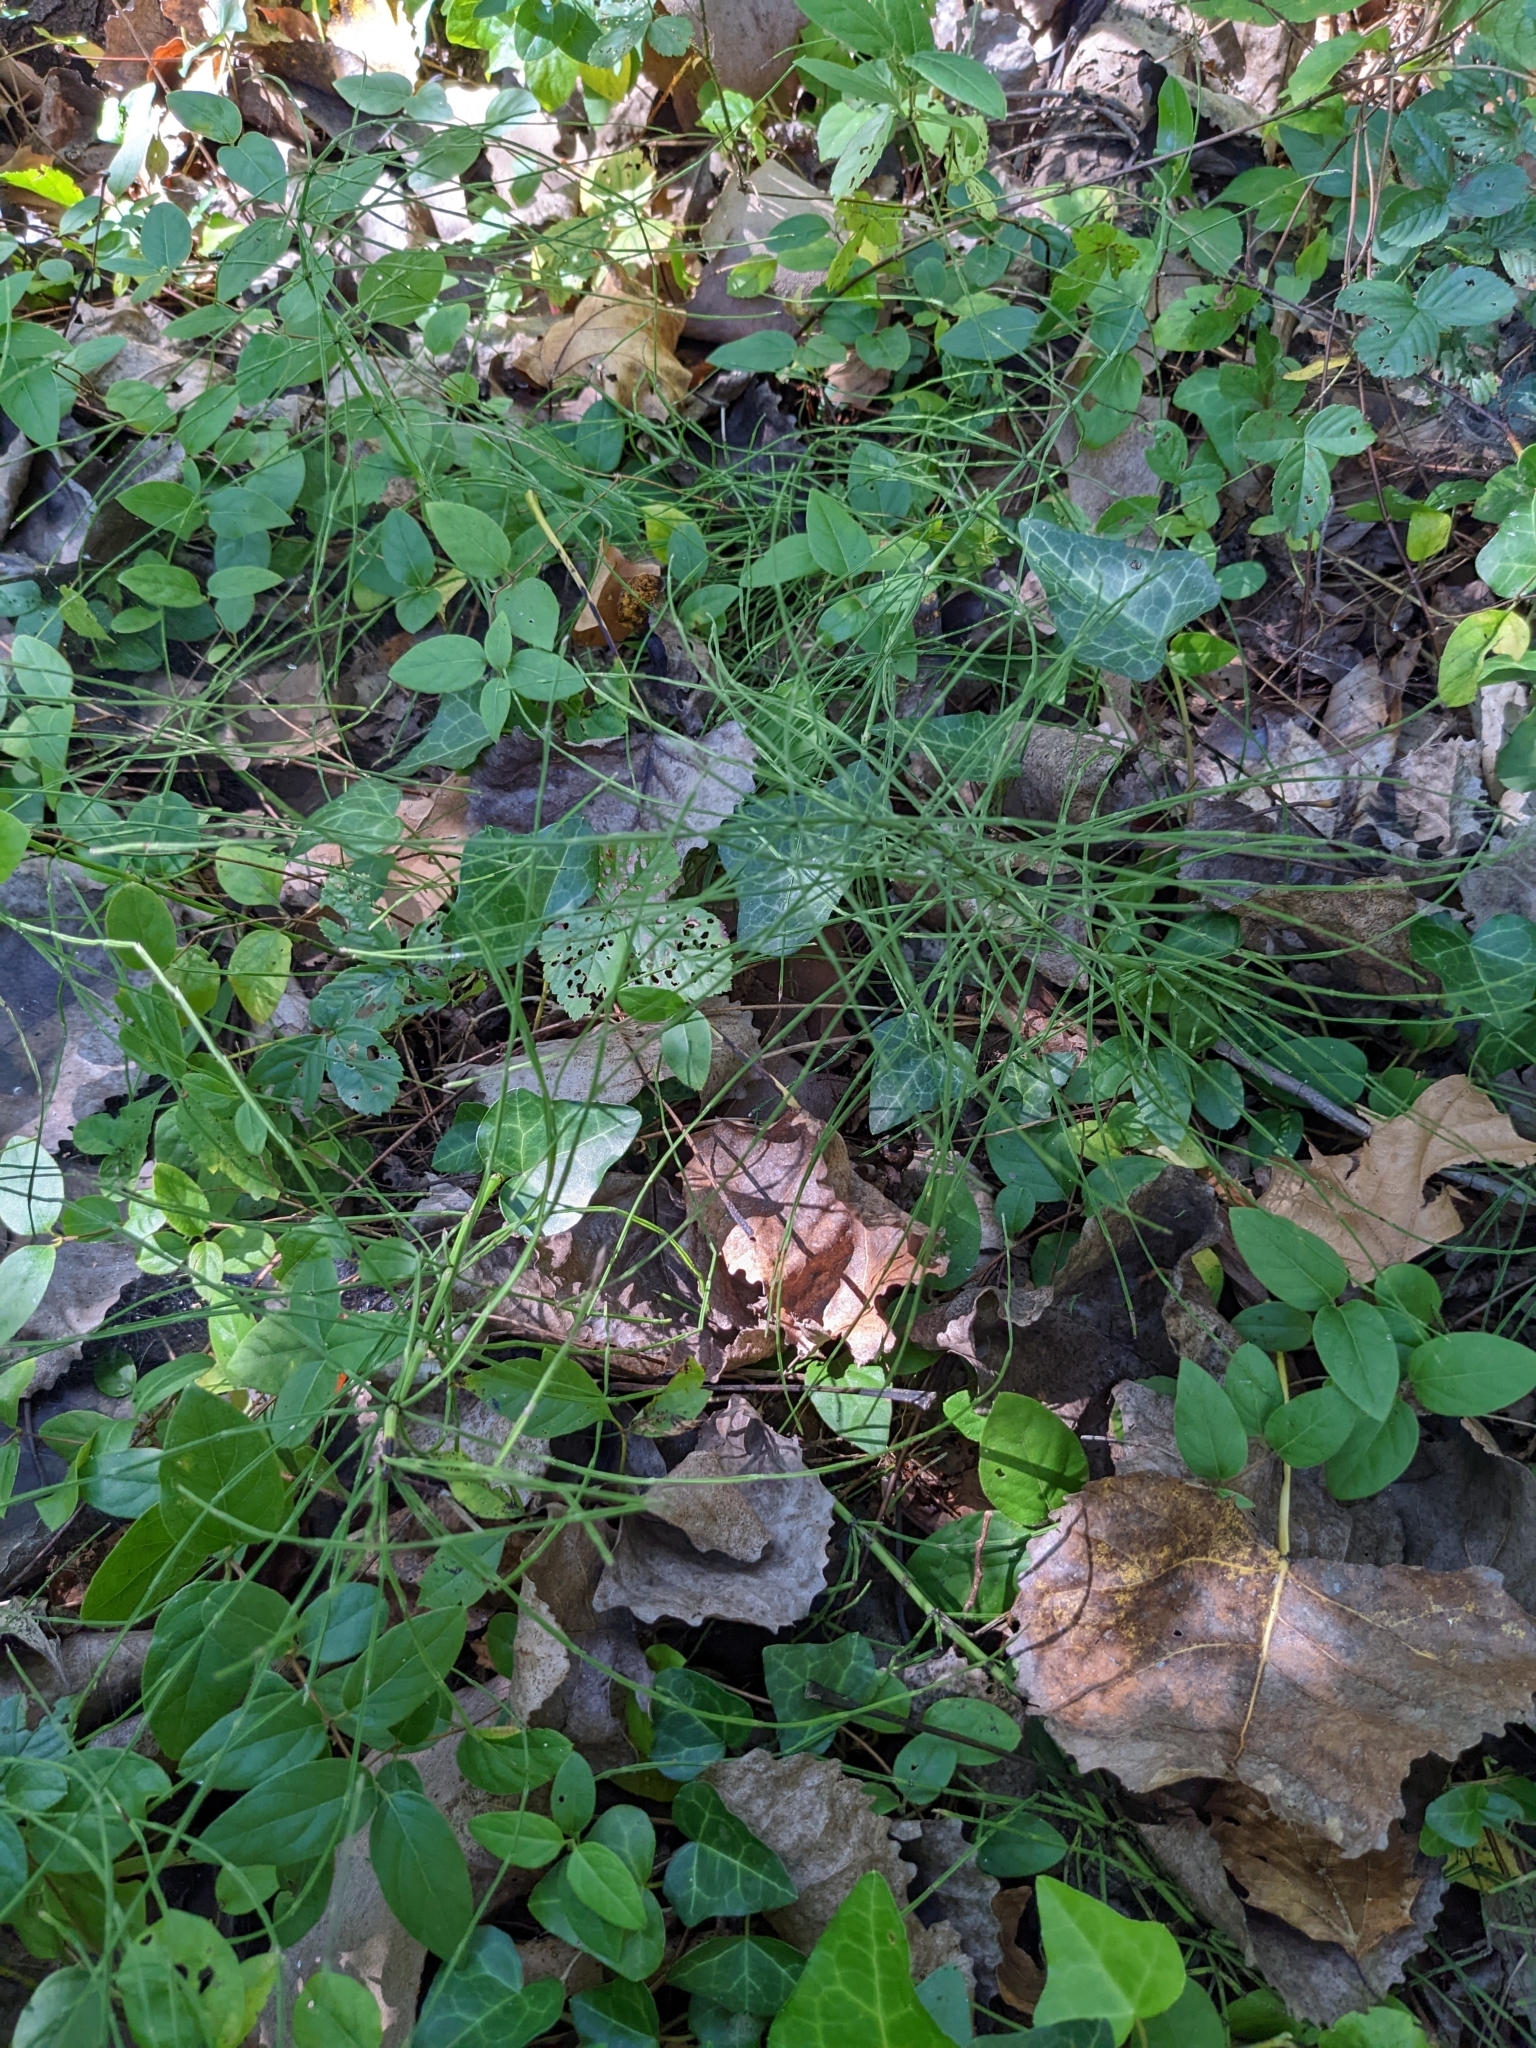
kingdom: Plantae
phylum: Tracheophyta
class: Polypodiopsida
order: Equisetales
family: Equisetaceae
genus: Equisetum
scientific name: Equisetum arvense
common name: Field horsetail
